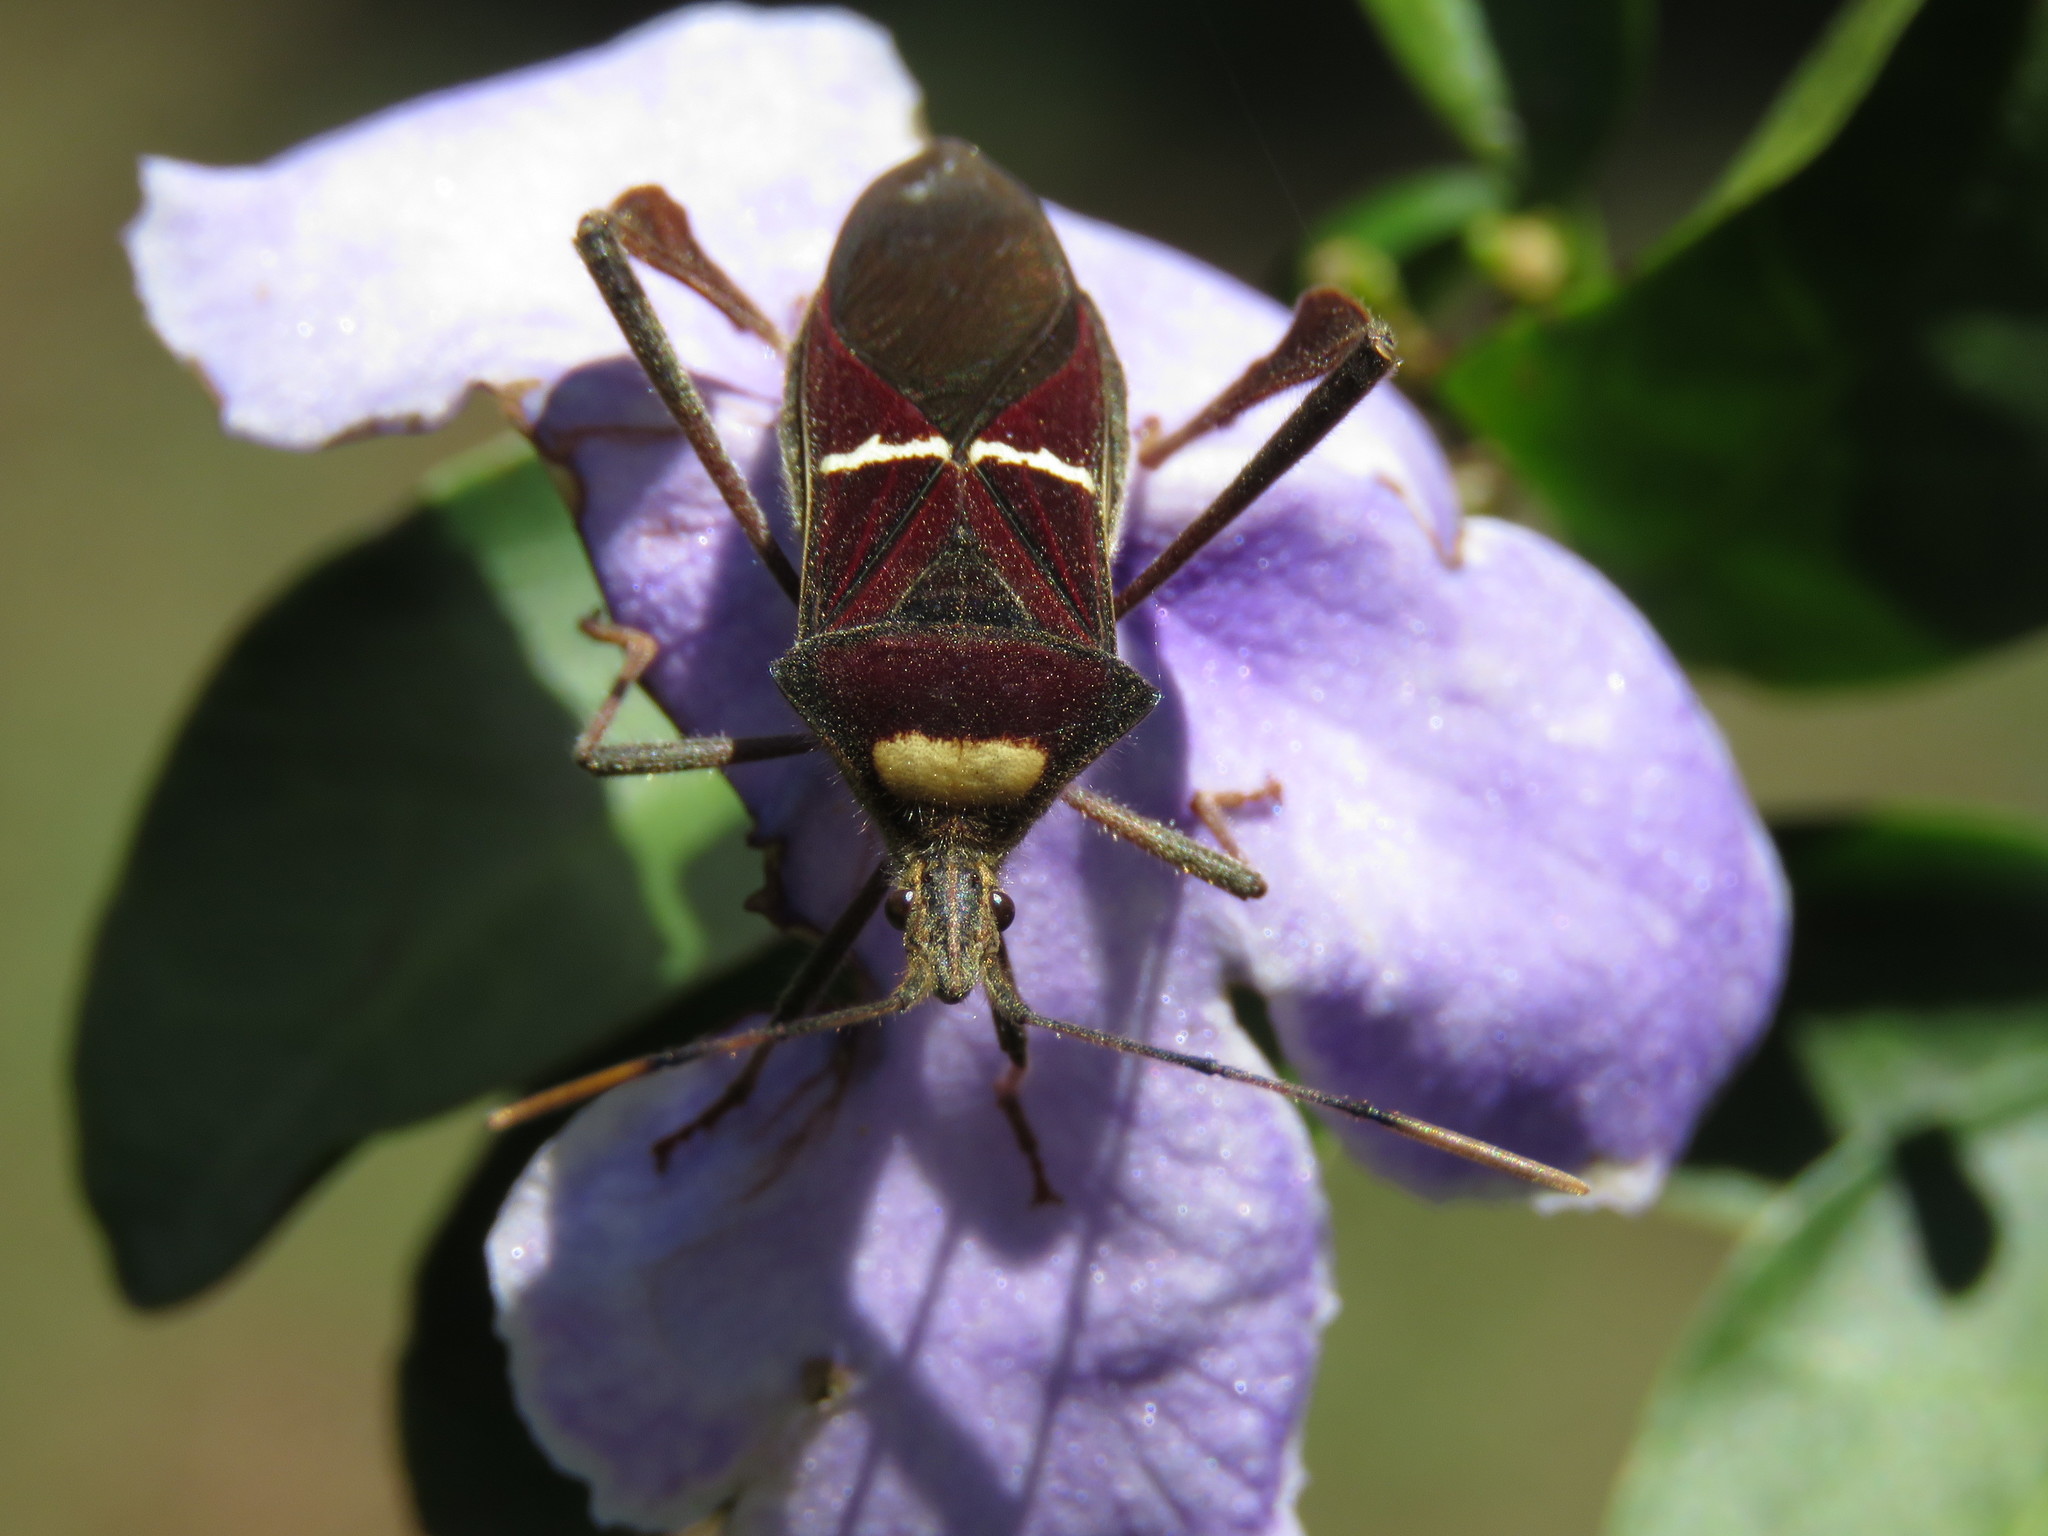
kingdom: Animalia
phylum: Arthropoda
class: Insecta
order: Hemiptera
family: Coreidae
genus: Leptoglossus
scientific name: Leptoglossus macrophyllus
